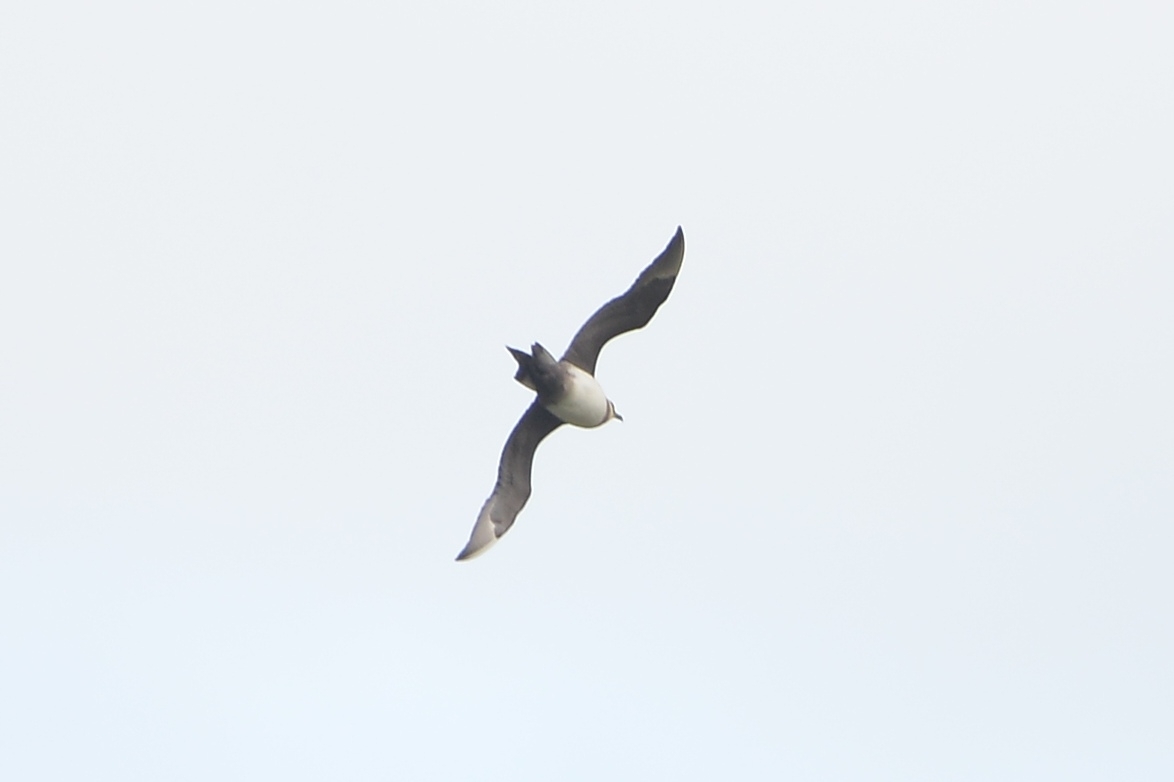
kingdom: Animalia
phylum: Chordata
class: Aves
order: Charadriiformes
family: Stercorariidae
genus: Stercorarius
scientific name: Stercorarius parasiticus
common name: Parasitic jaeger
